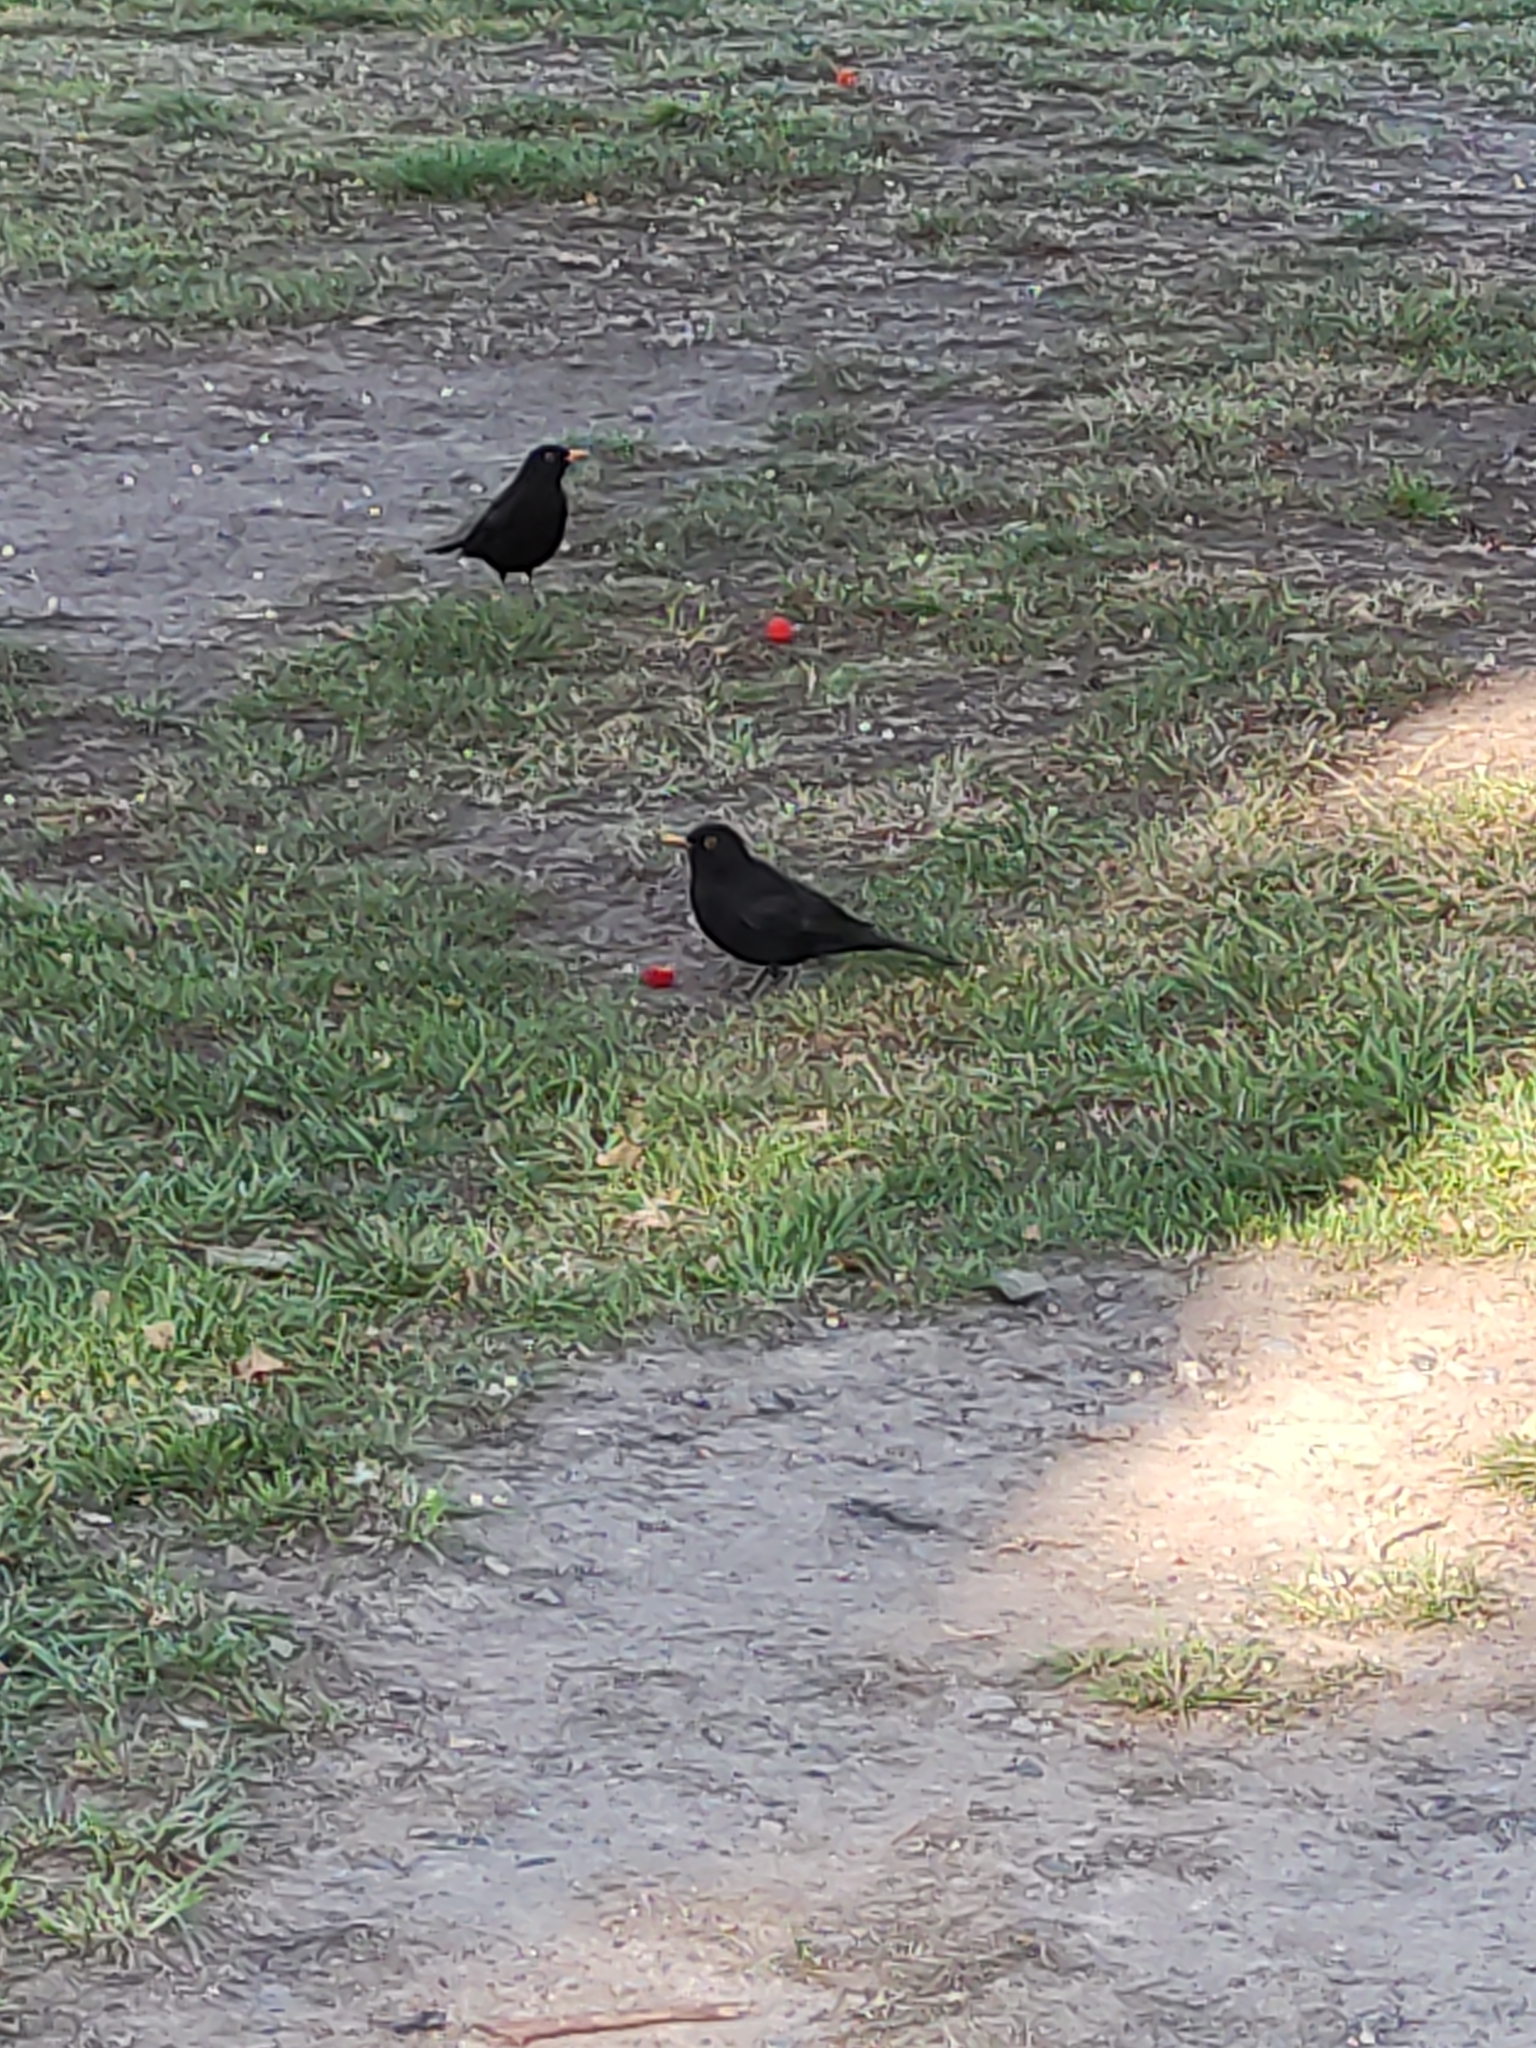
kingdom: Animalia
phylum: Chordata
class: Aves
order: Passeriformes
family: Turdidae
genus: Turdus
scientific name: Turdus merula
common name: Common blackbird
